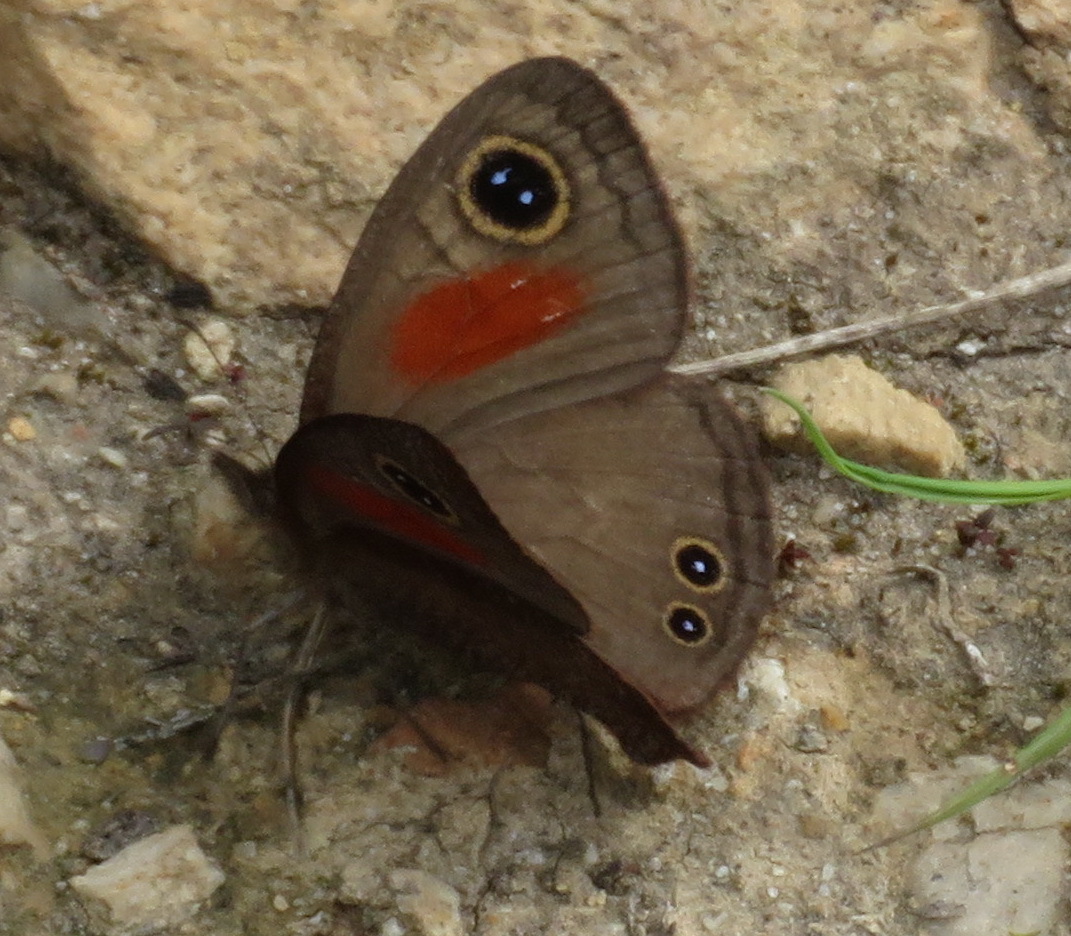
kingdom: Animalia
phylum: Arthropoda
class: Insecta
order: Lepidoptera
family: Nymphalidae
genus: Cassionympha
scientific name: Cassionympha cassius
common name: Rainforest brown
